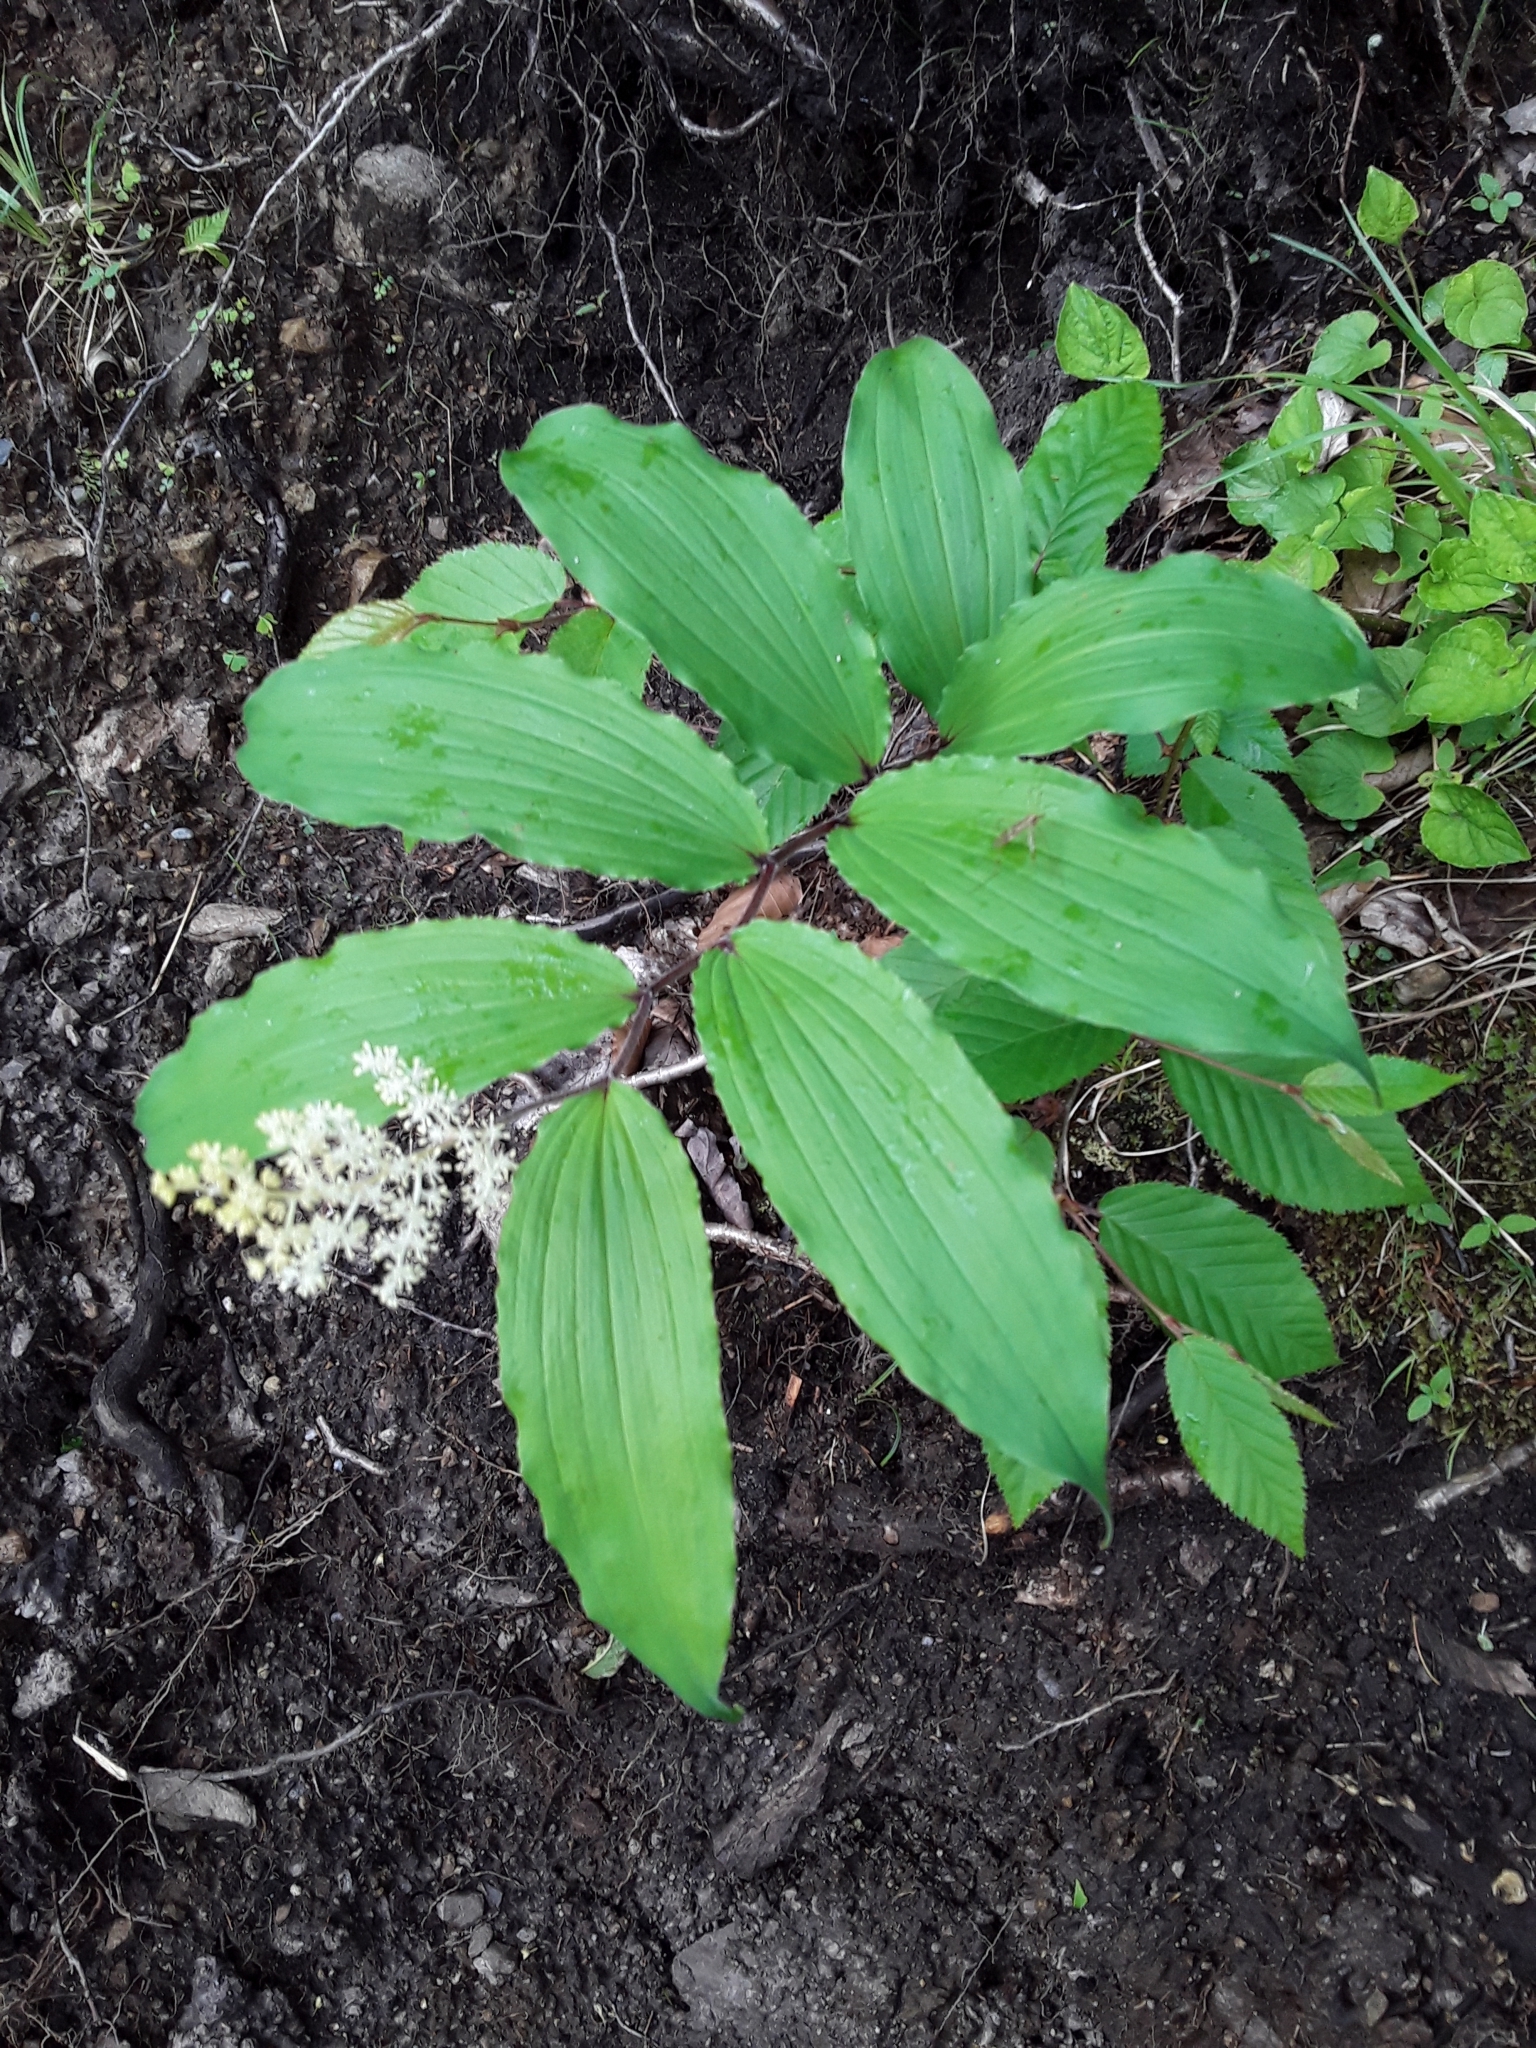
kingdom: Plantae
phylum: Tracheophyta
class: Liliopsida
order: Asparagales
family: Asparagaceae
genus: Maianthemum
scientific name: Maianthemum racemosum
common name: False spikenard
